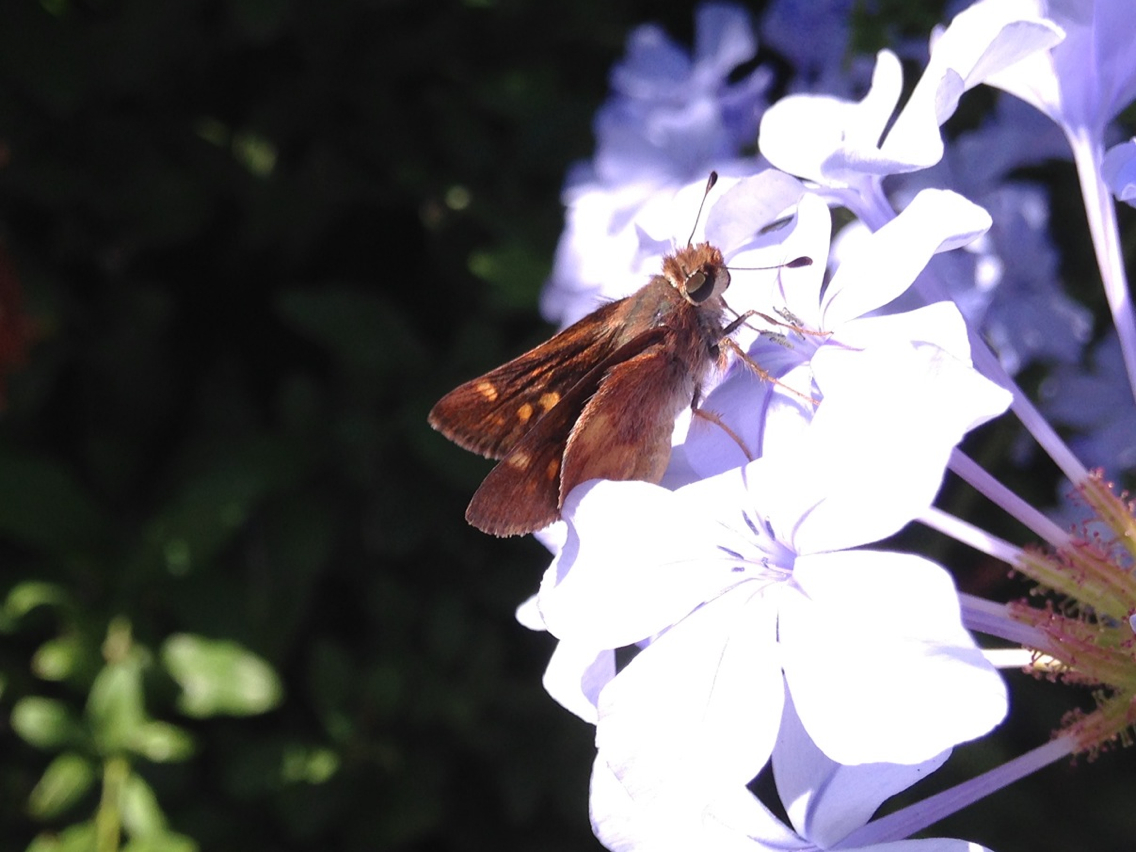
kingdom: Animalia
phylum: Arthropoda
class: Insecta
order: Lepidoptera
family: Hesperiidae
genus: Lon
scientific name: Lon melane
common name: Umber skipper
